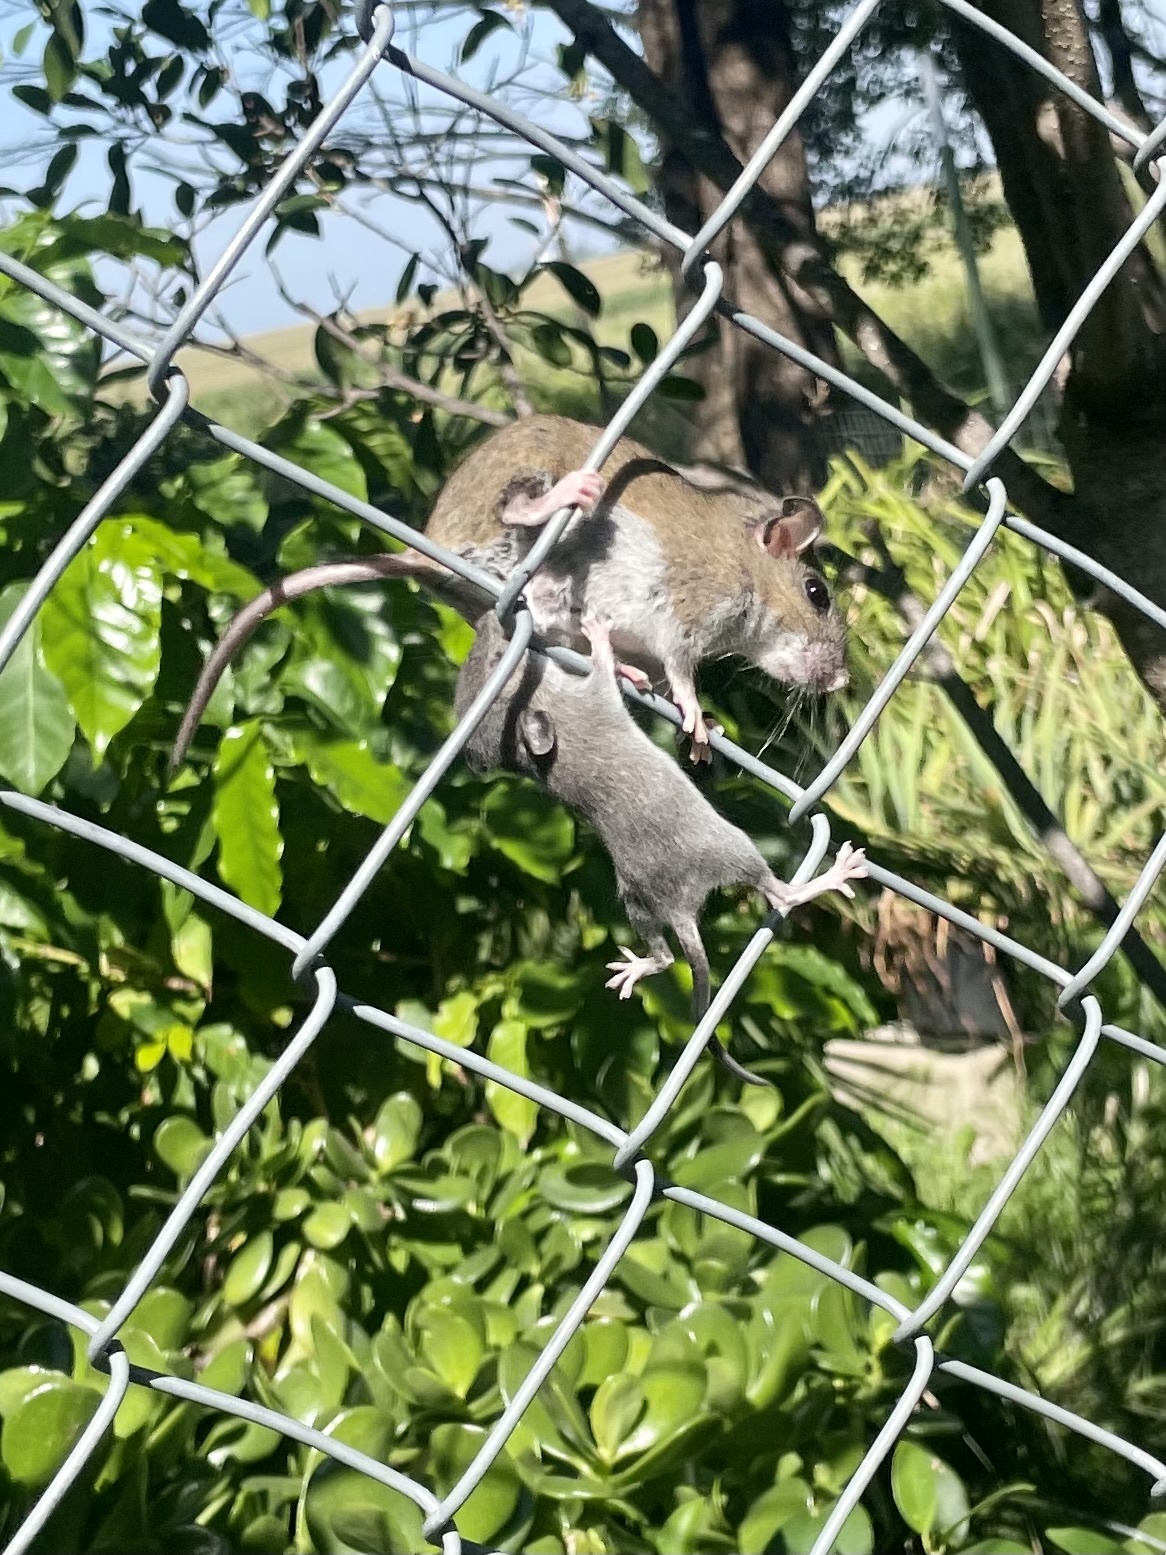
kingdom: Animalia
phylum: Chordata
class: Mammalia
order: Rodentia
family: Cricetidae
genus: Peromyscus
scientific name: Peromyscus leucopus
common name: White-footed deermouse
